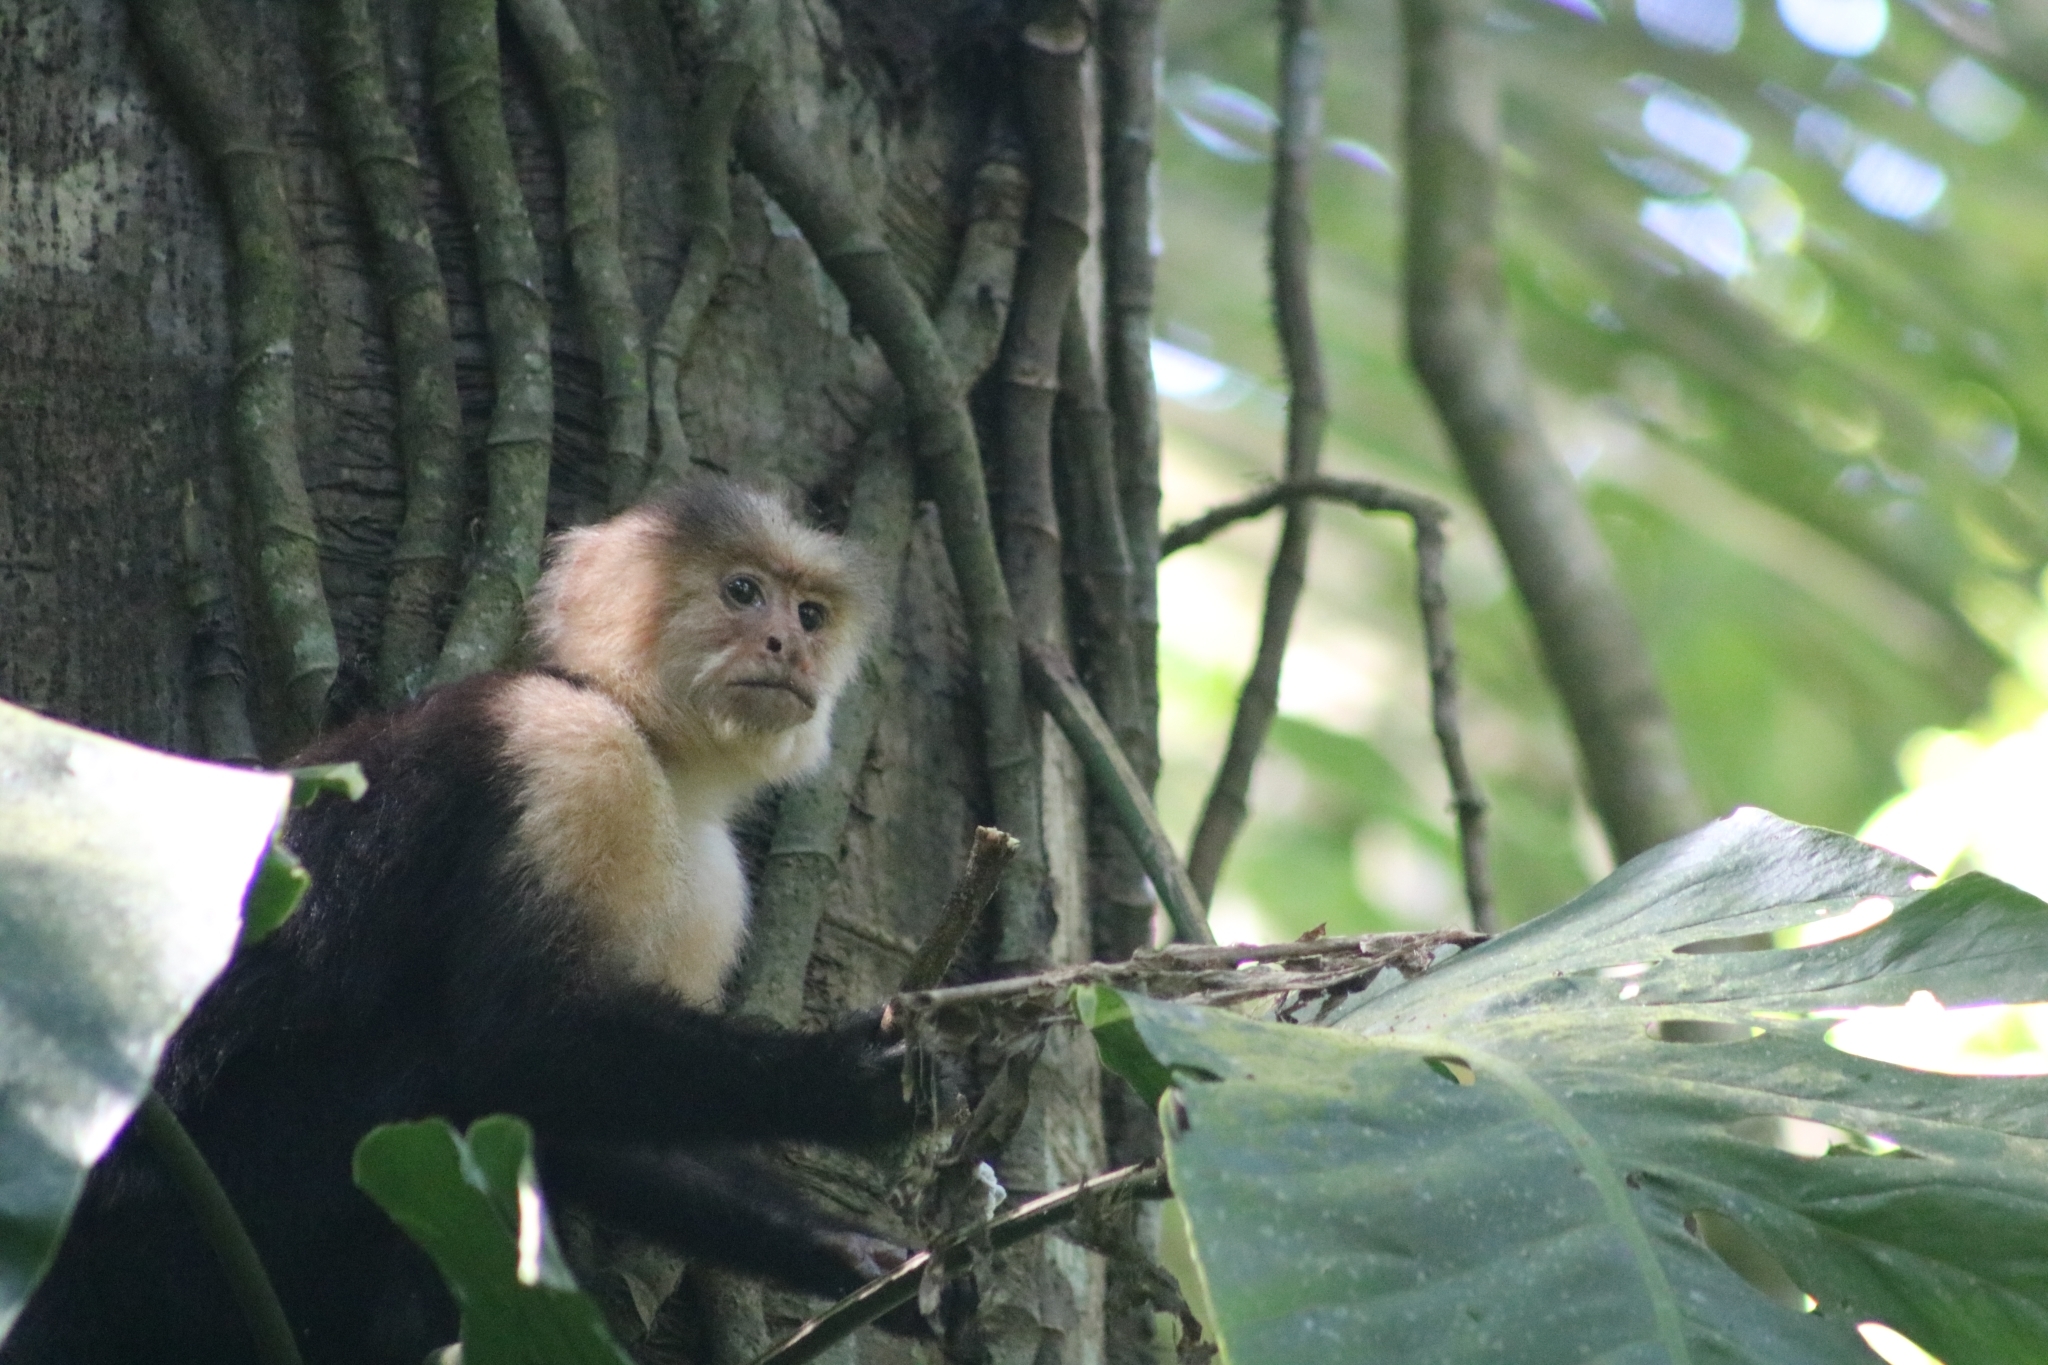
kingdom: Animalia
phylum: Chordata
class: Mammalia
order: Primates
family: Cebidae
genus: Cebus
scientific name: Cebus imitator
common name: Panamanian white-faced capuchin
